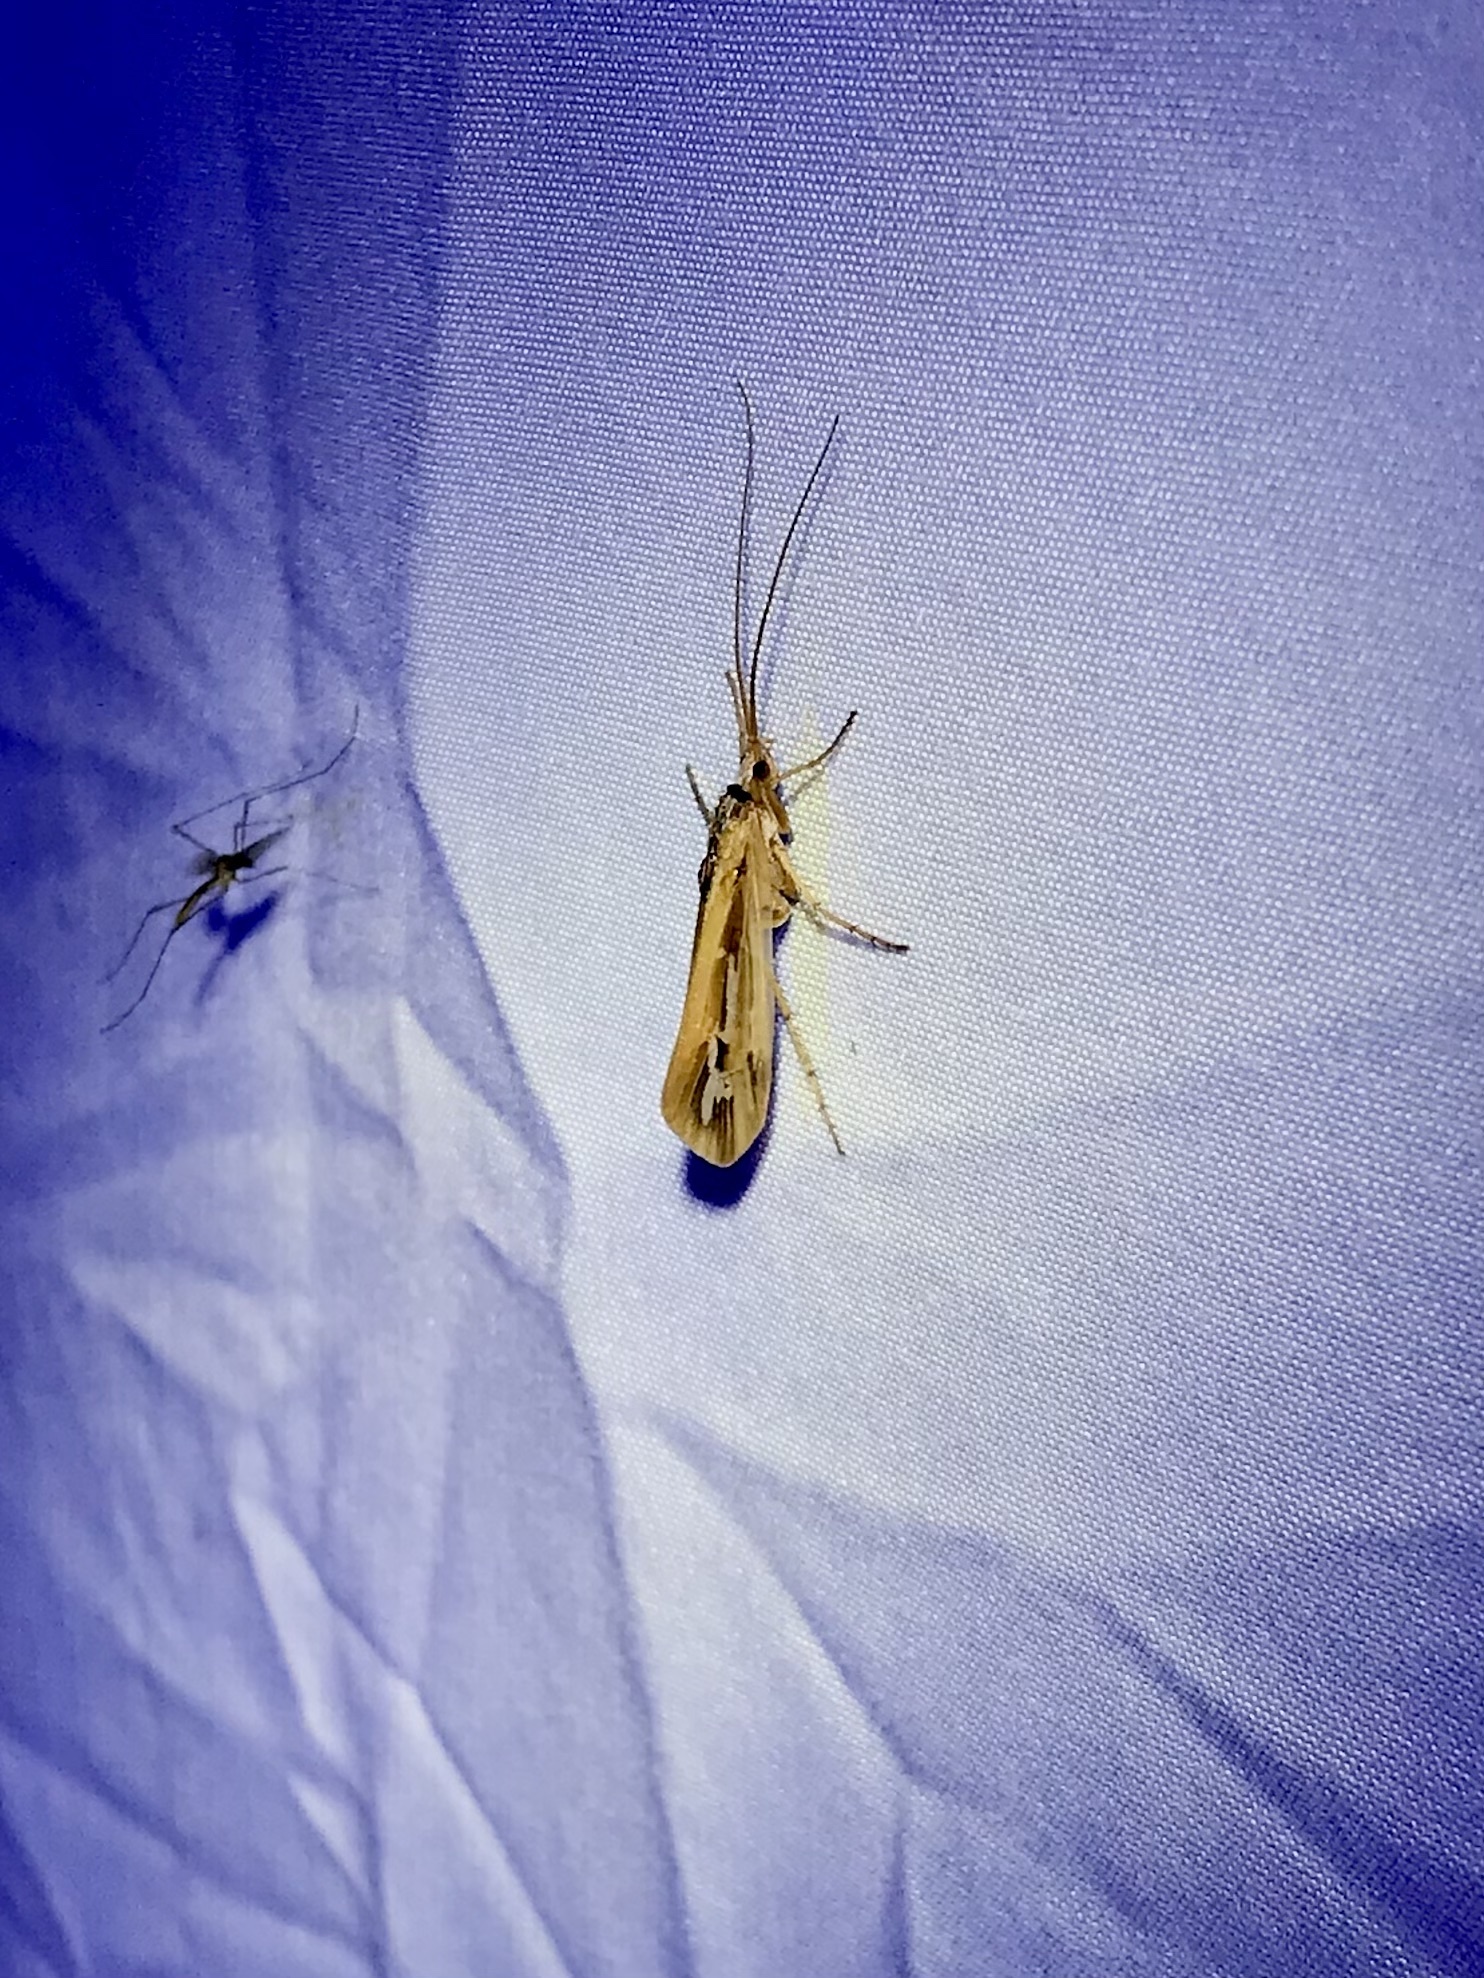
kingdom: Animalia
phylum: Arthropoda
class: Insecta
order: Trichoptera
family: Limnephilidae
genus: Limnephilus
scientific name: Limnephilus ornatus
